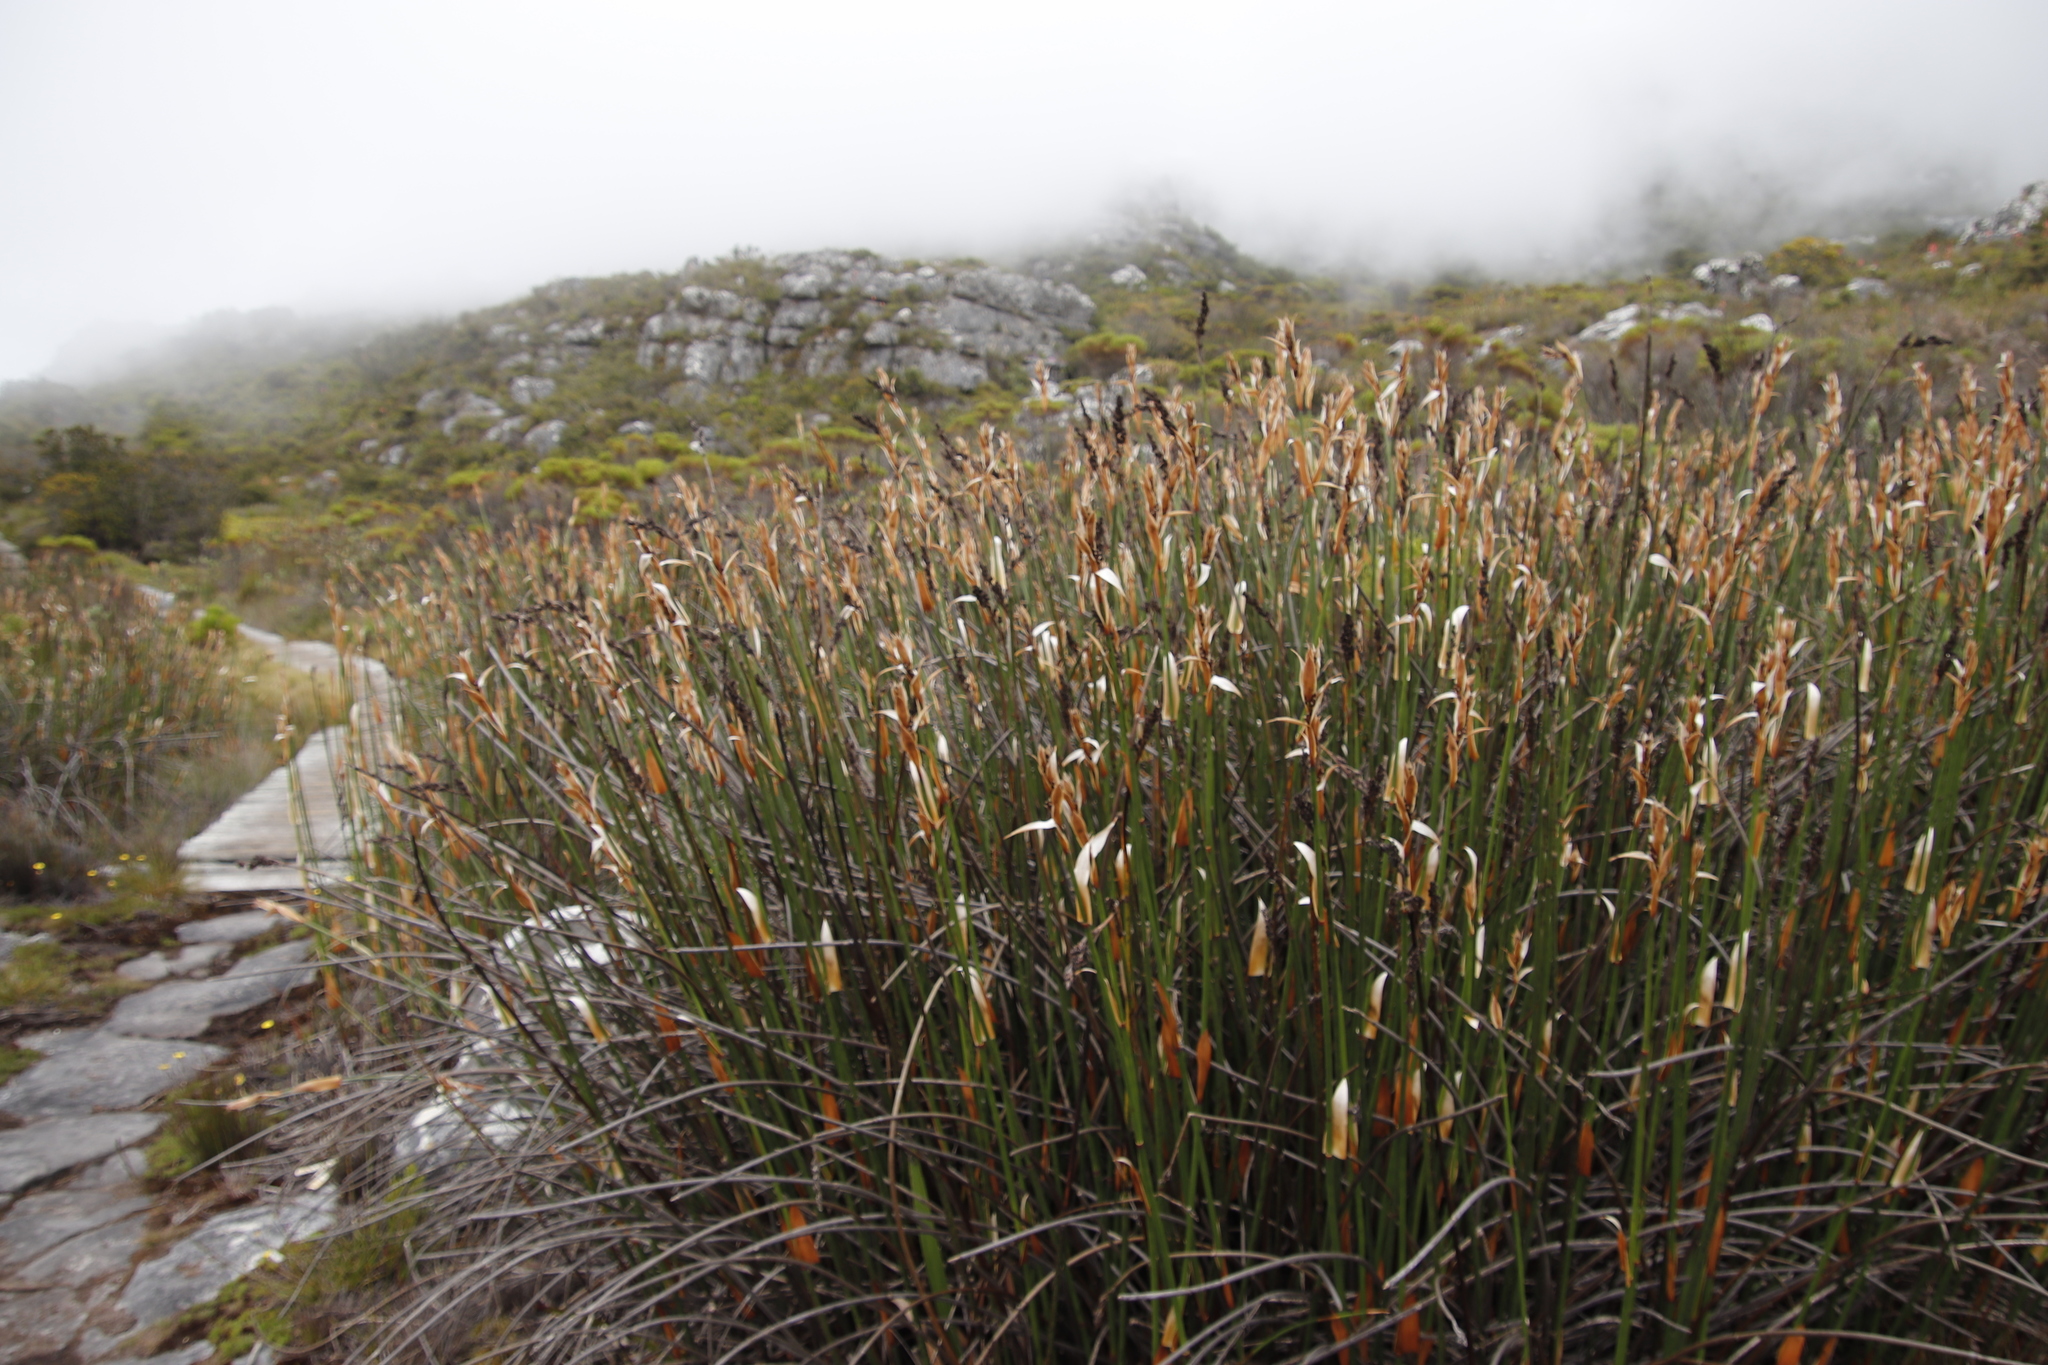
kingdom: Plantae
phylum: Tracheophyta
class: Liliopsida
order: Poales
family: Restionaceae
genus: Elegia
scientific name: Elegia mucronata
